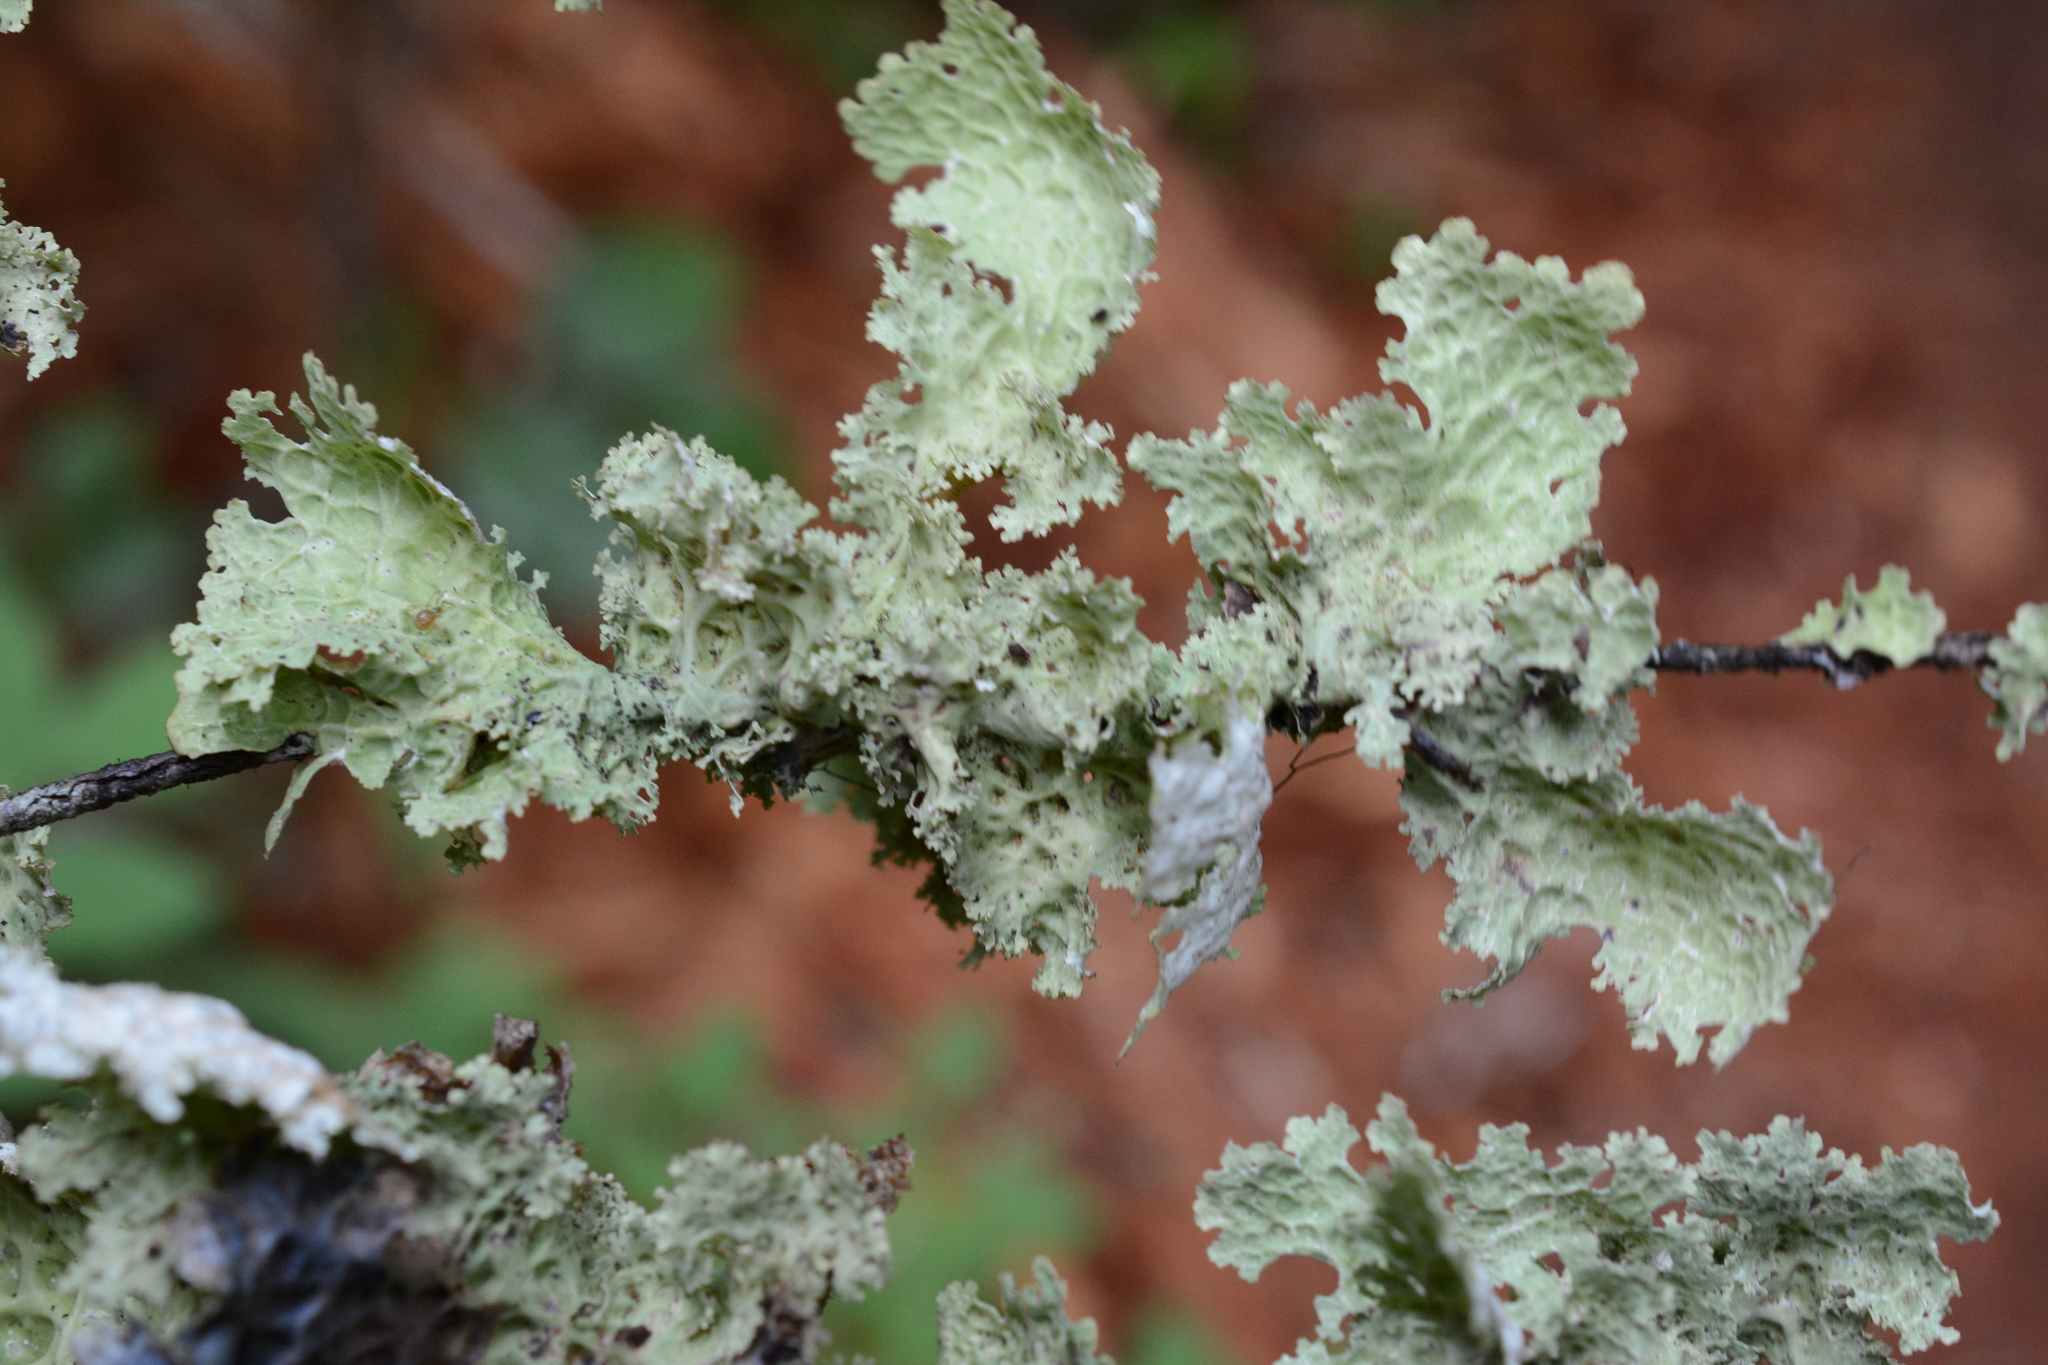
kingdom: Fungi
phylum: Ascomycota
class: Lecanoromycetes
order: Peltigerales
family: Lobariaceae
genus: Lobaria
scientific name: Lobaria oregana
